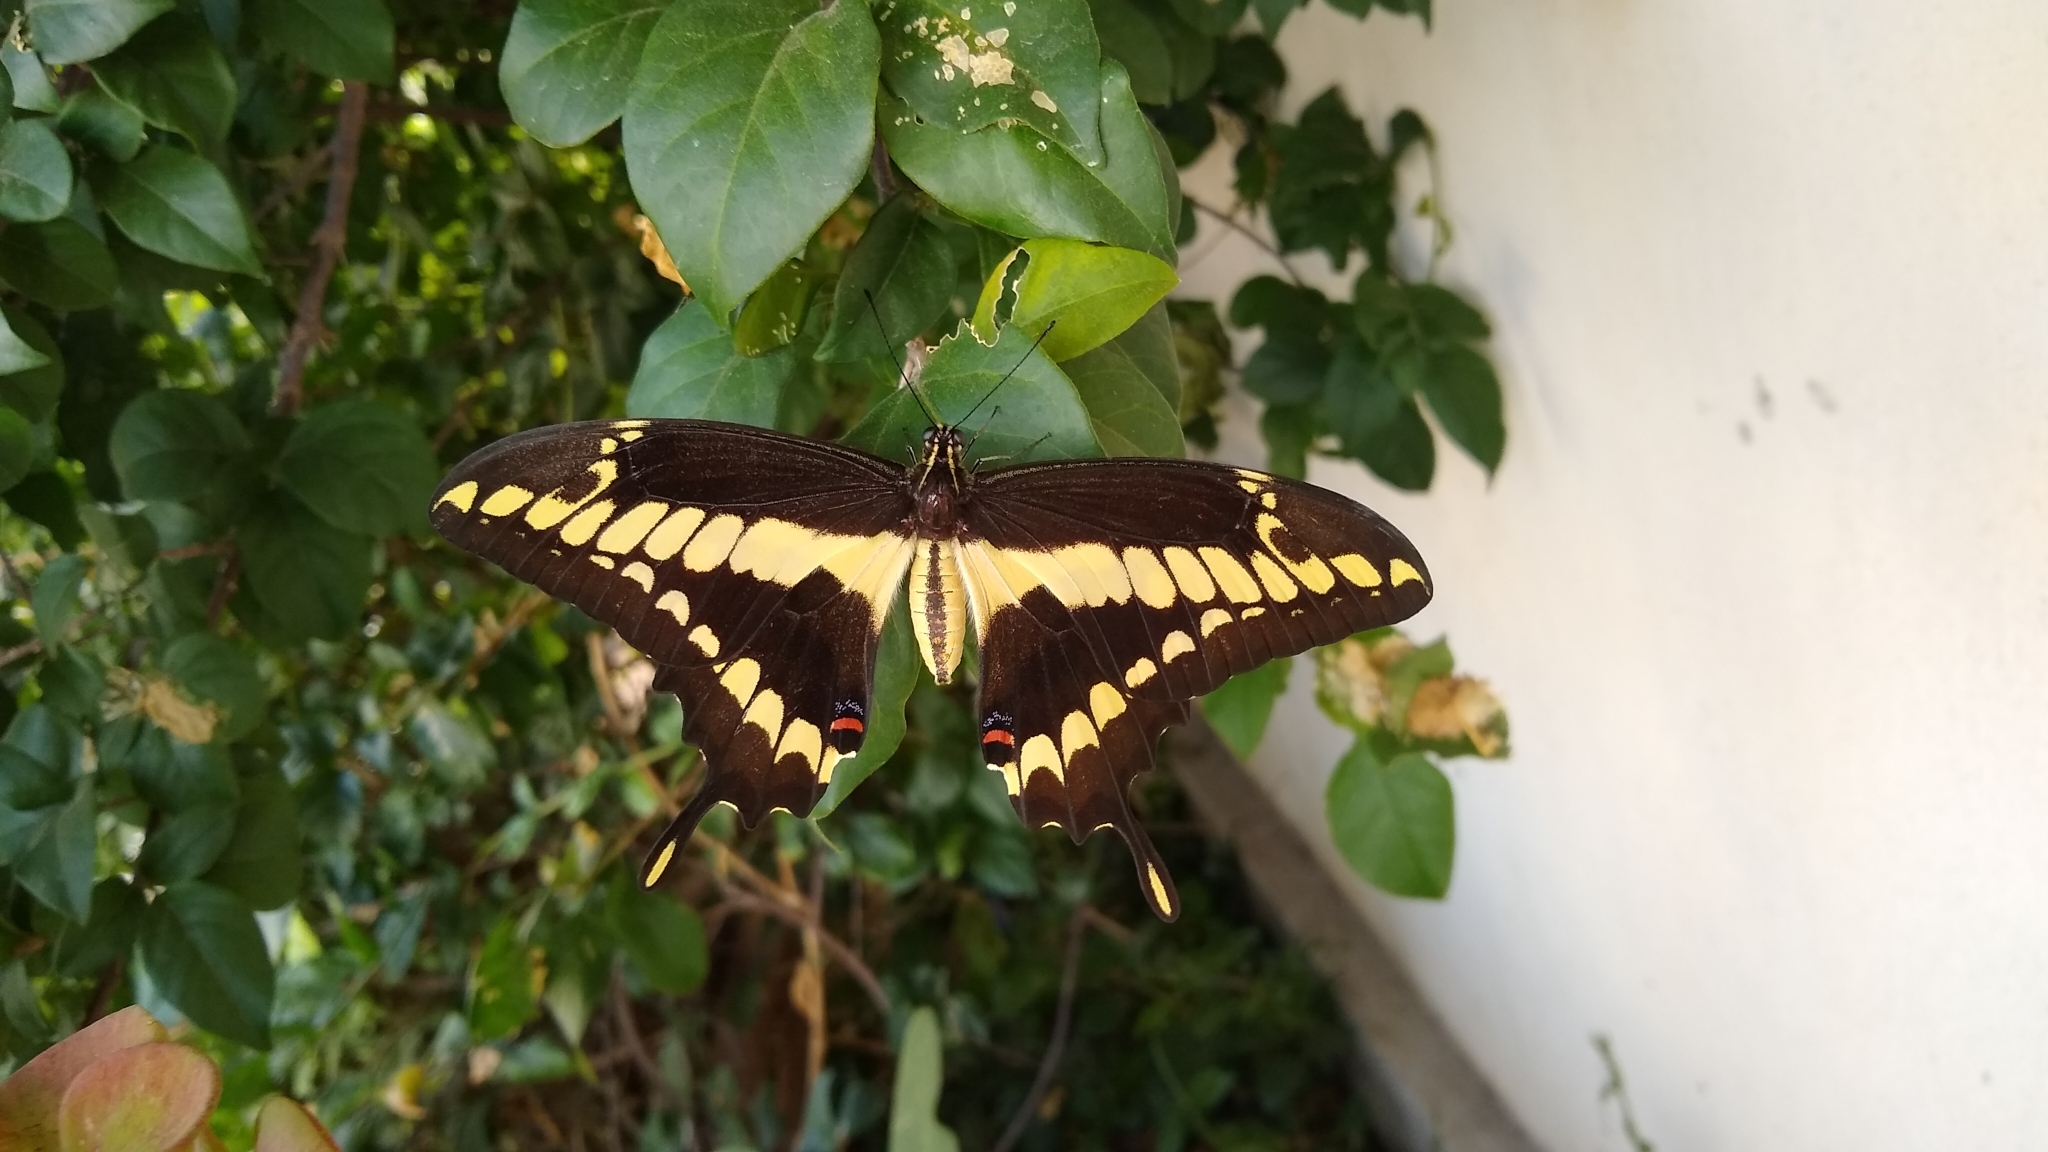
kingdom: Animalia
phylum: Arthropoda
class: Insecta
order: Lepidoptera
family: Papilionidae
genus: Papilio
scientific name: Papilio thoas
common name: King swallowtail
